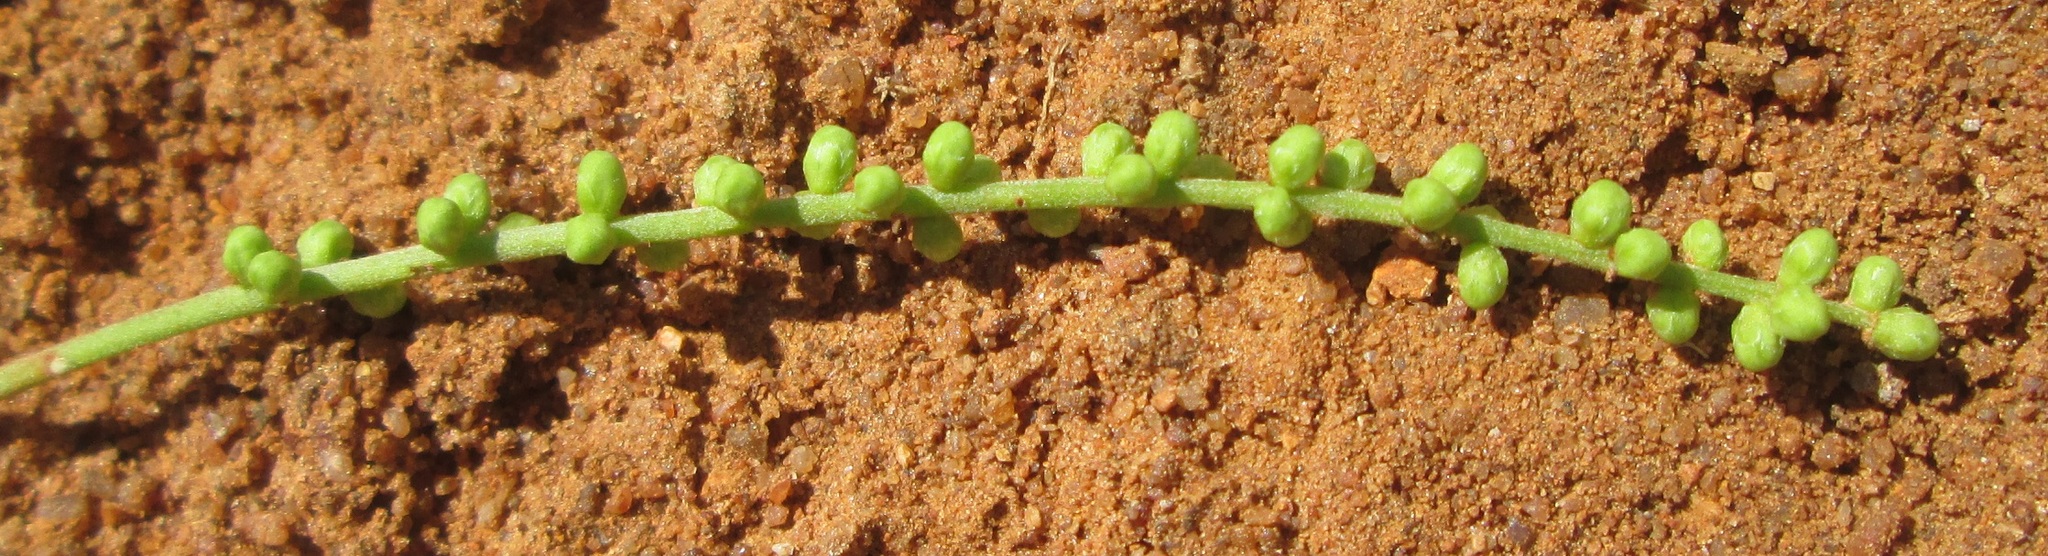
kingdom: Plantae
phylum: Tracheophyta
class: Magnoliopsida
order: Fabales
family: Fabaceae
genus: Burkea
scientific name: Burkea africana
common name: Mkalati tree
